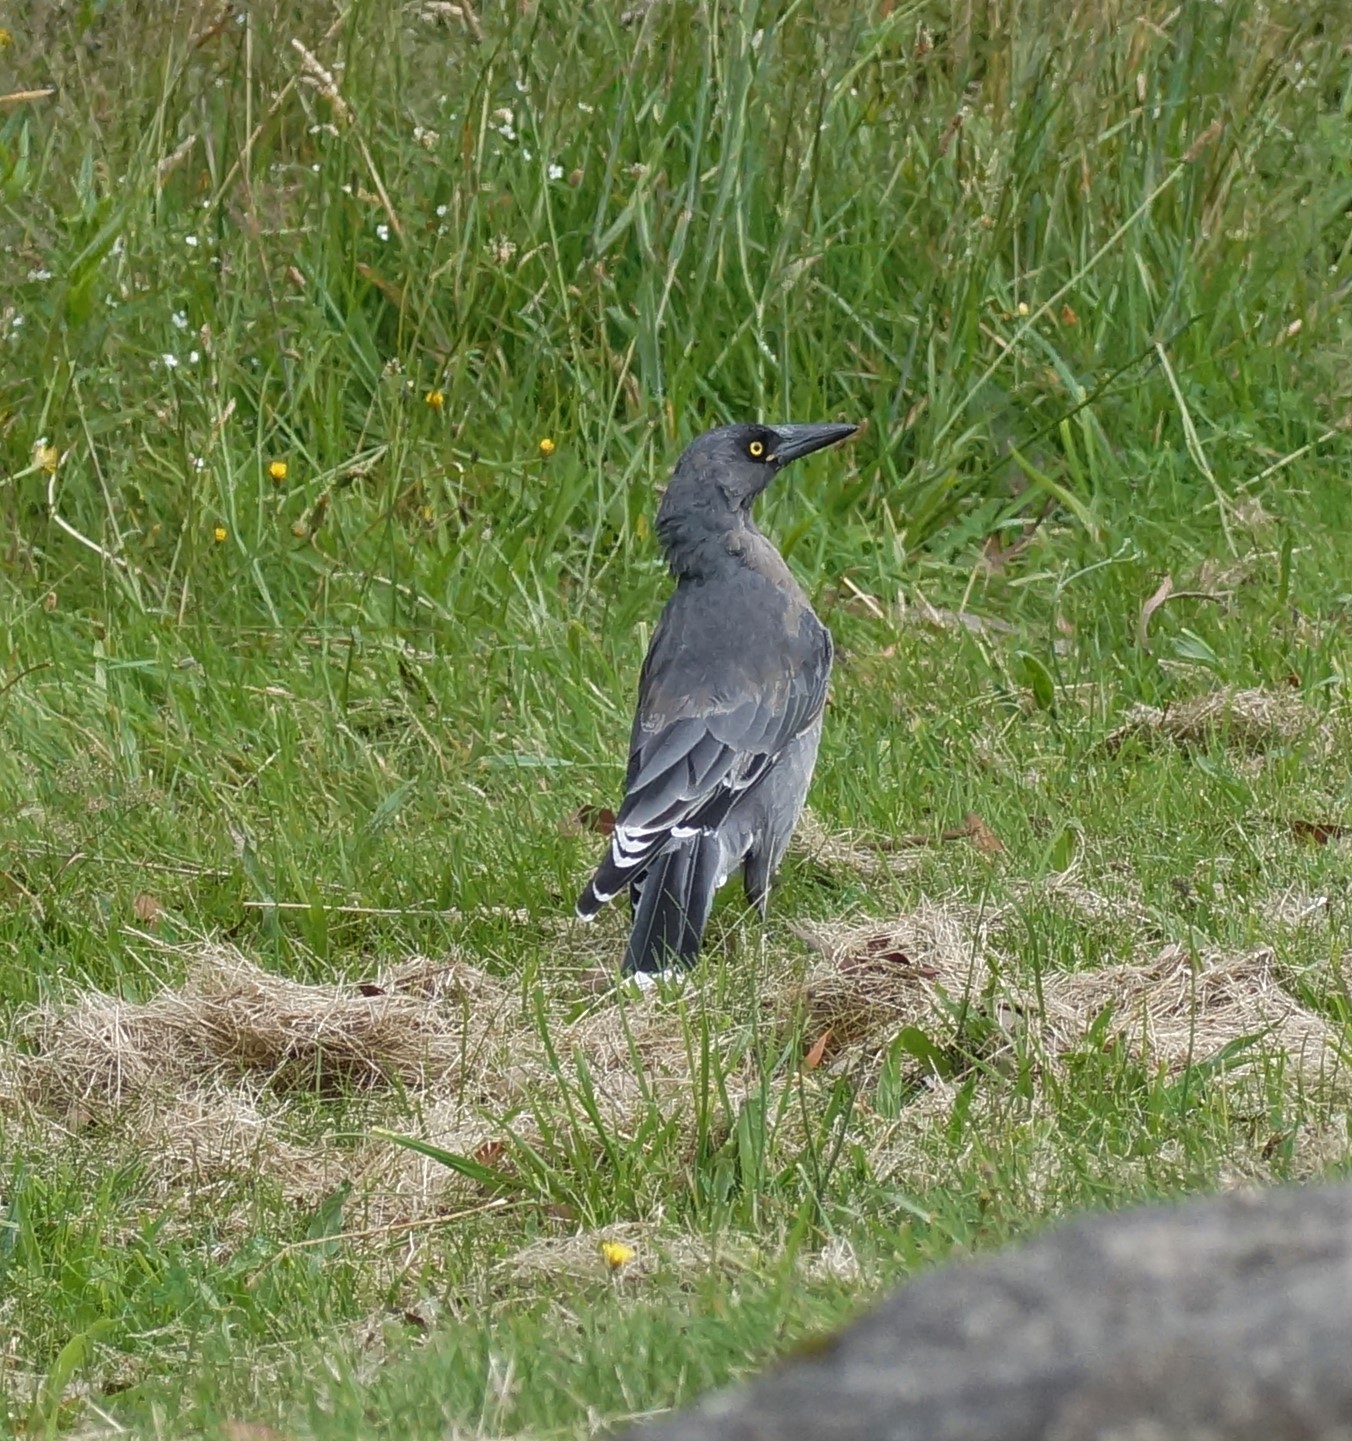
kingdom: Animalia
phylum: Chordata
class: Aves
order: Passeriformes
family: Cracticidae
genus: Strepera
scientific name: Strepera versicolor
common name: Grey currawong
